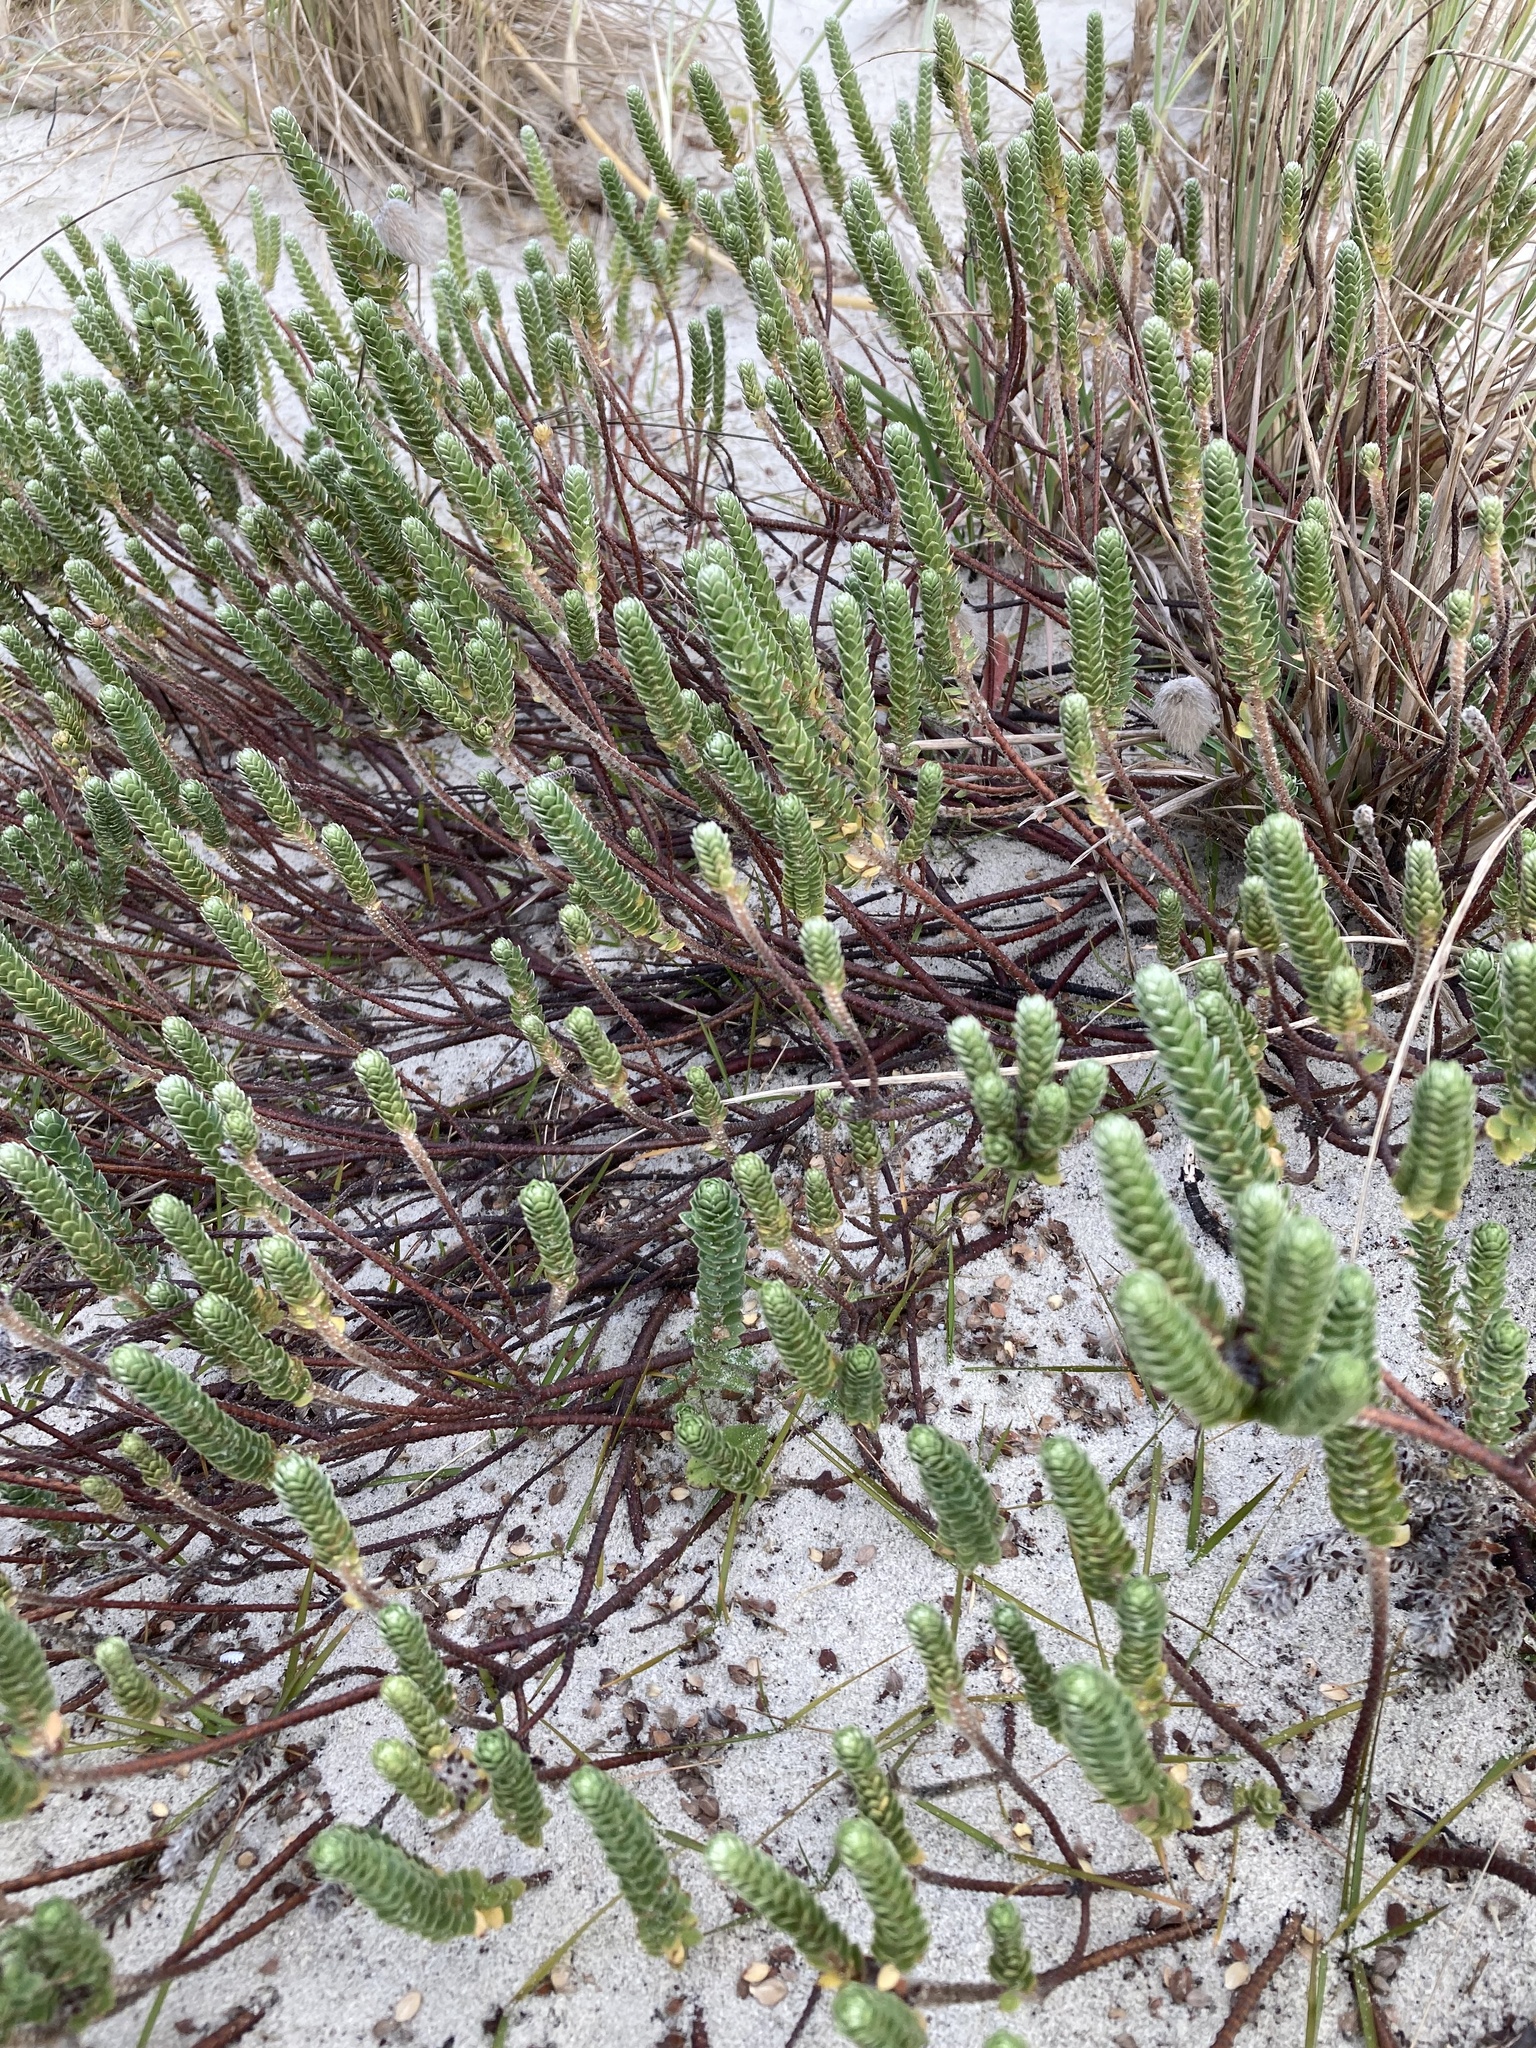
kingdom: Plantae
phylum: Tracheophyta
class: Magnoliopsida
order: Malvales
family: Thymelaeaceae
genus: Pimelea
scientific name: Pimelea villosa
